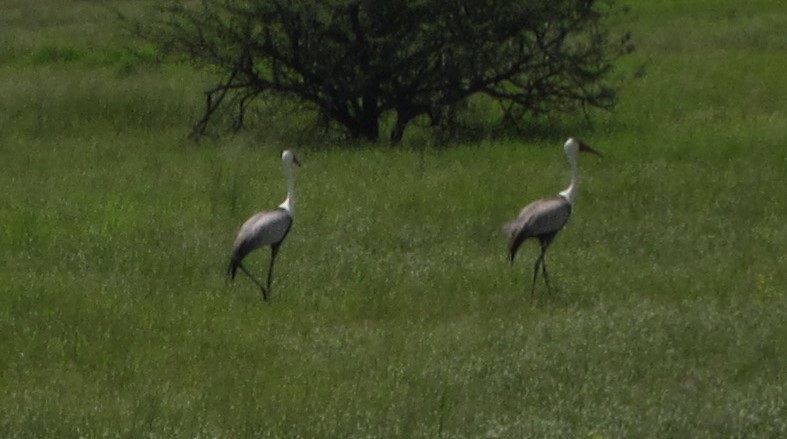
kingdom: Animalia
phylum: Chordata
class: Aves
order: Gruiformes
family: Gruidae
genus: Bugeranus
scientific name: Bugeranus carunculatus
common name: Wattled crane
